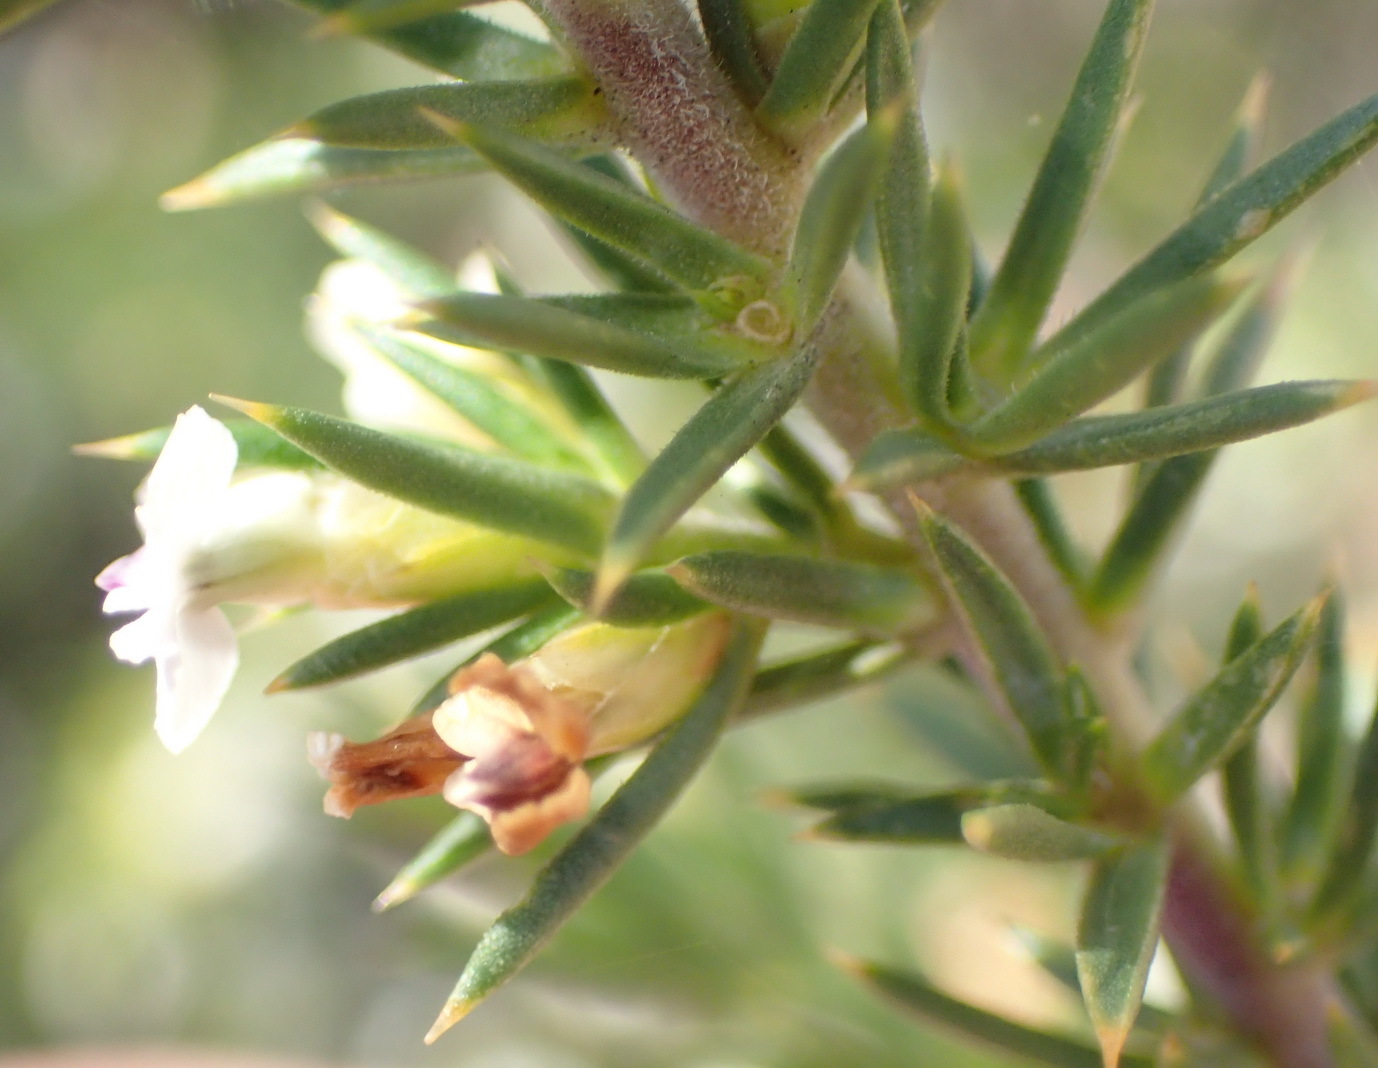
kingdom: Plantae
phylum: Tracheophyta
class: Magnoliopsida
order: Fabales
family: Polygalaceae
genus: Muraltia
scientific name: Muraltia ericifolia
